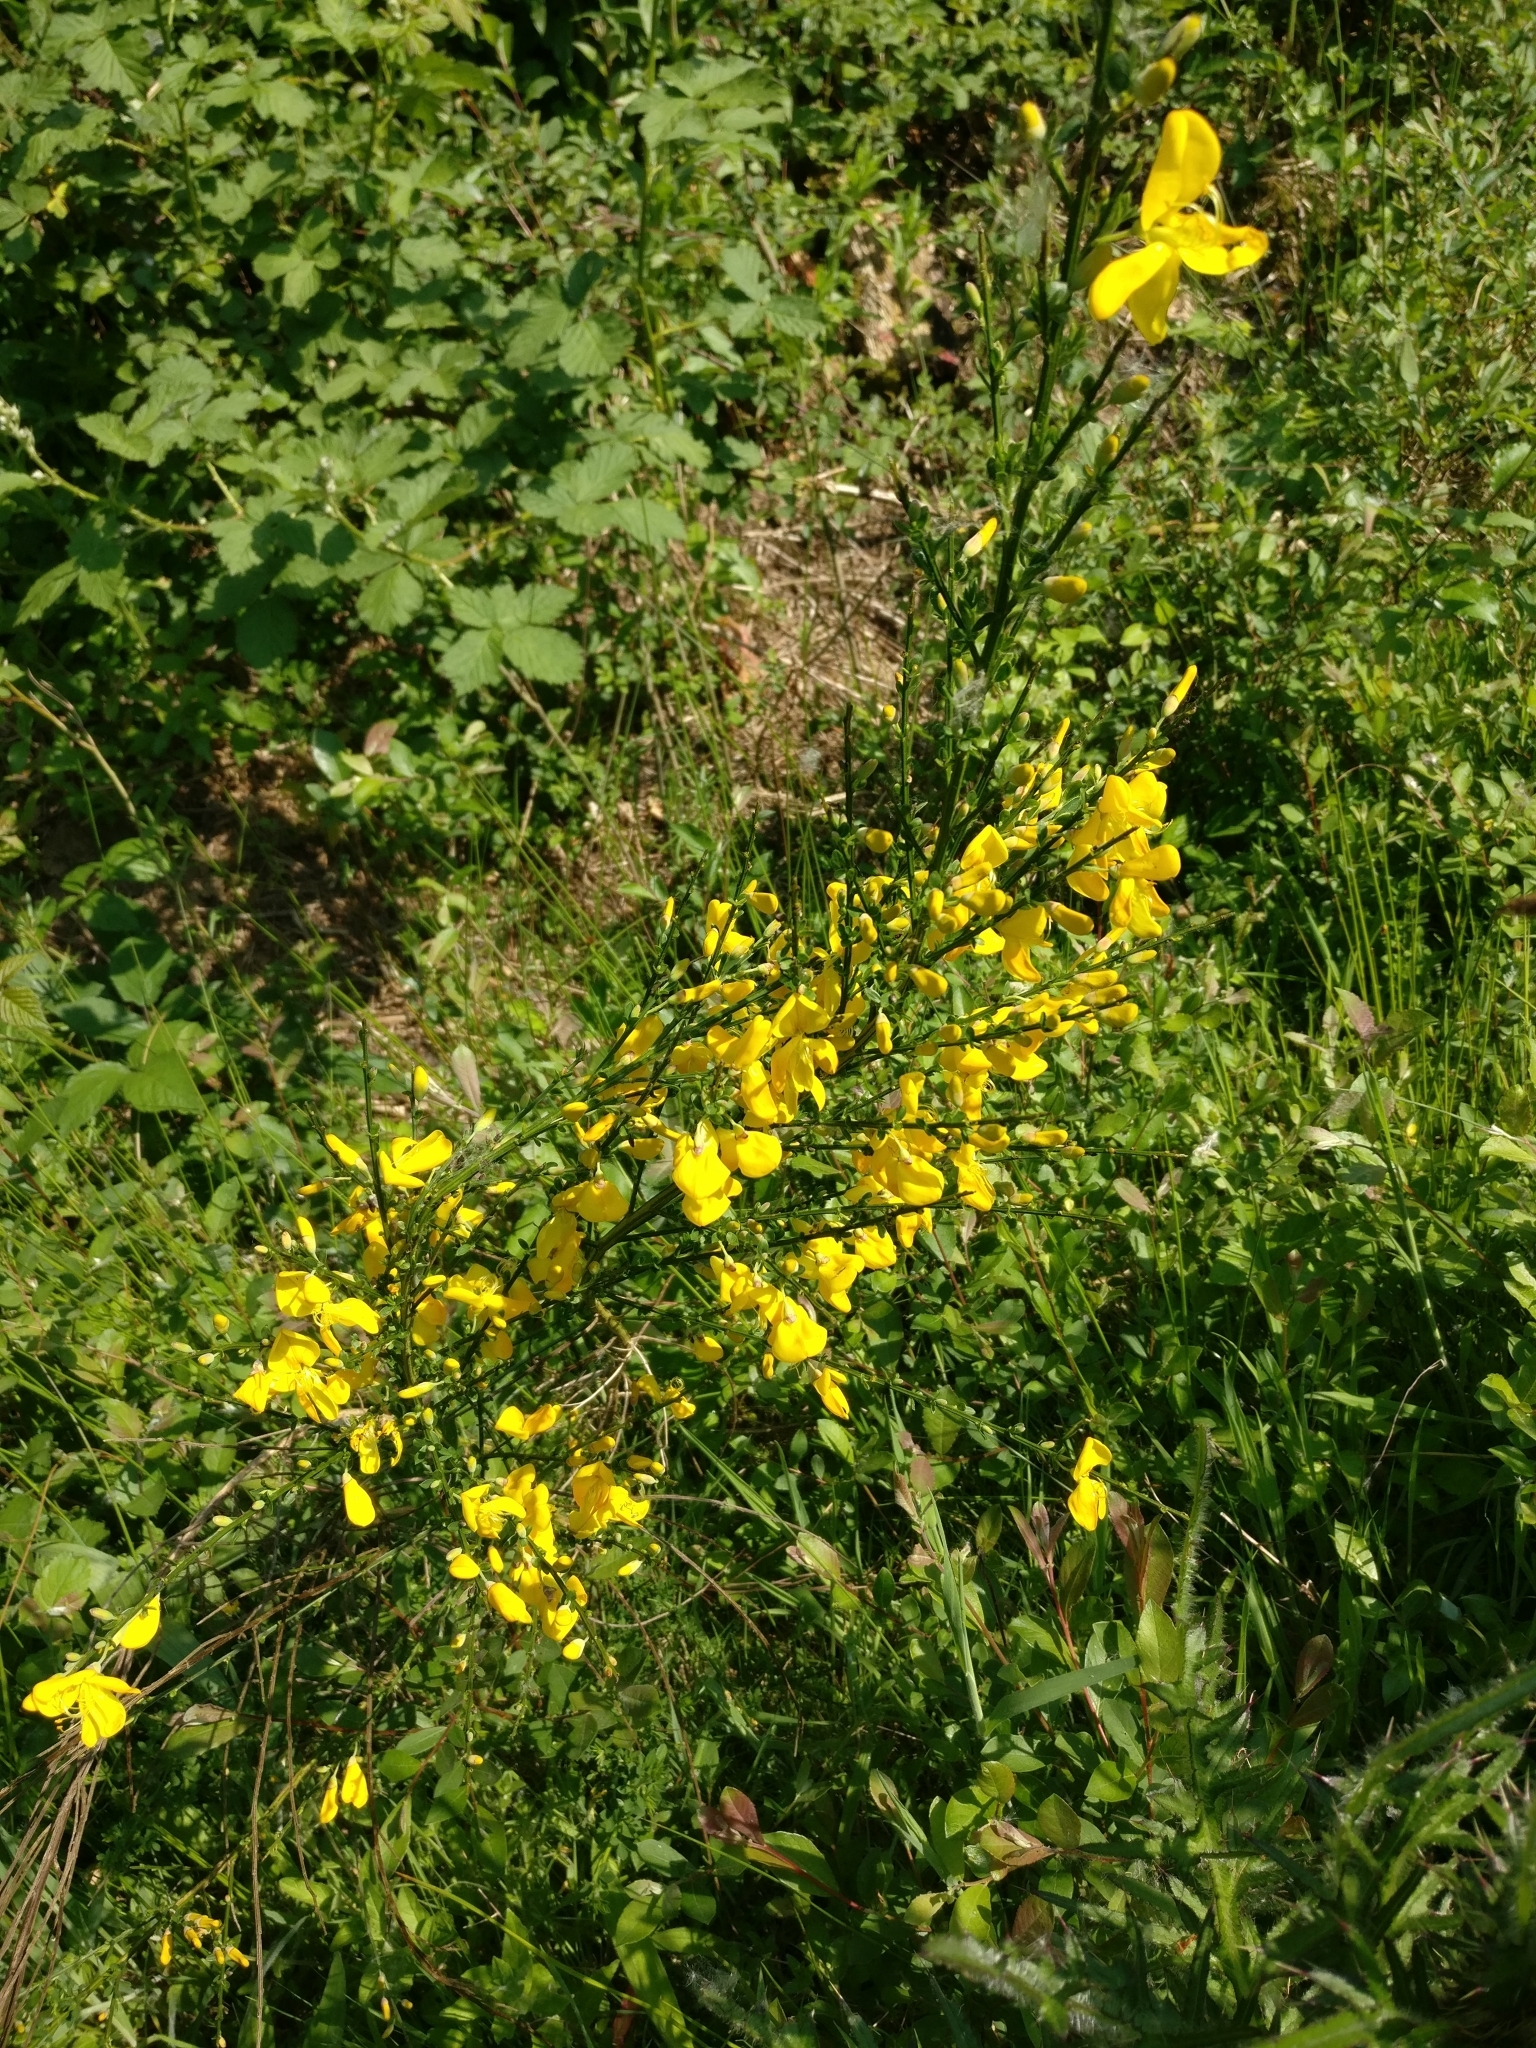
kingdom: Plantae
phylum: Tracheophyta
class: Magnoliopsida
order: Fabales
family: Fabaceae
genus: Cytisus
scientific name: Cytisus scoparius
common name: Scotch broom
